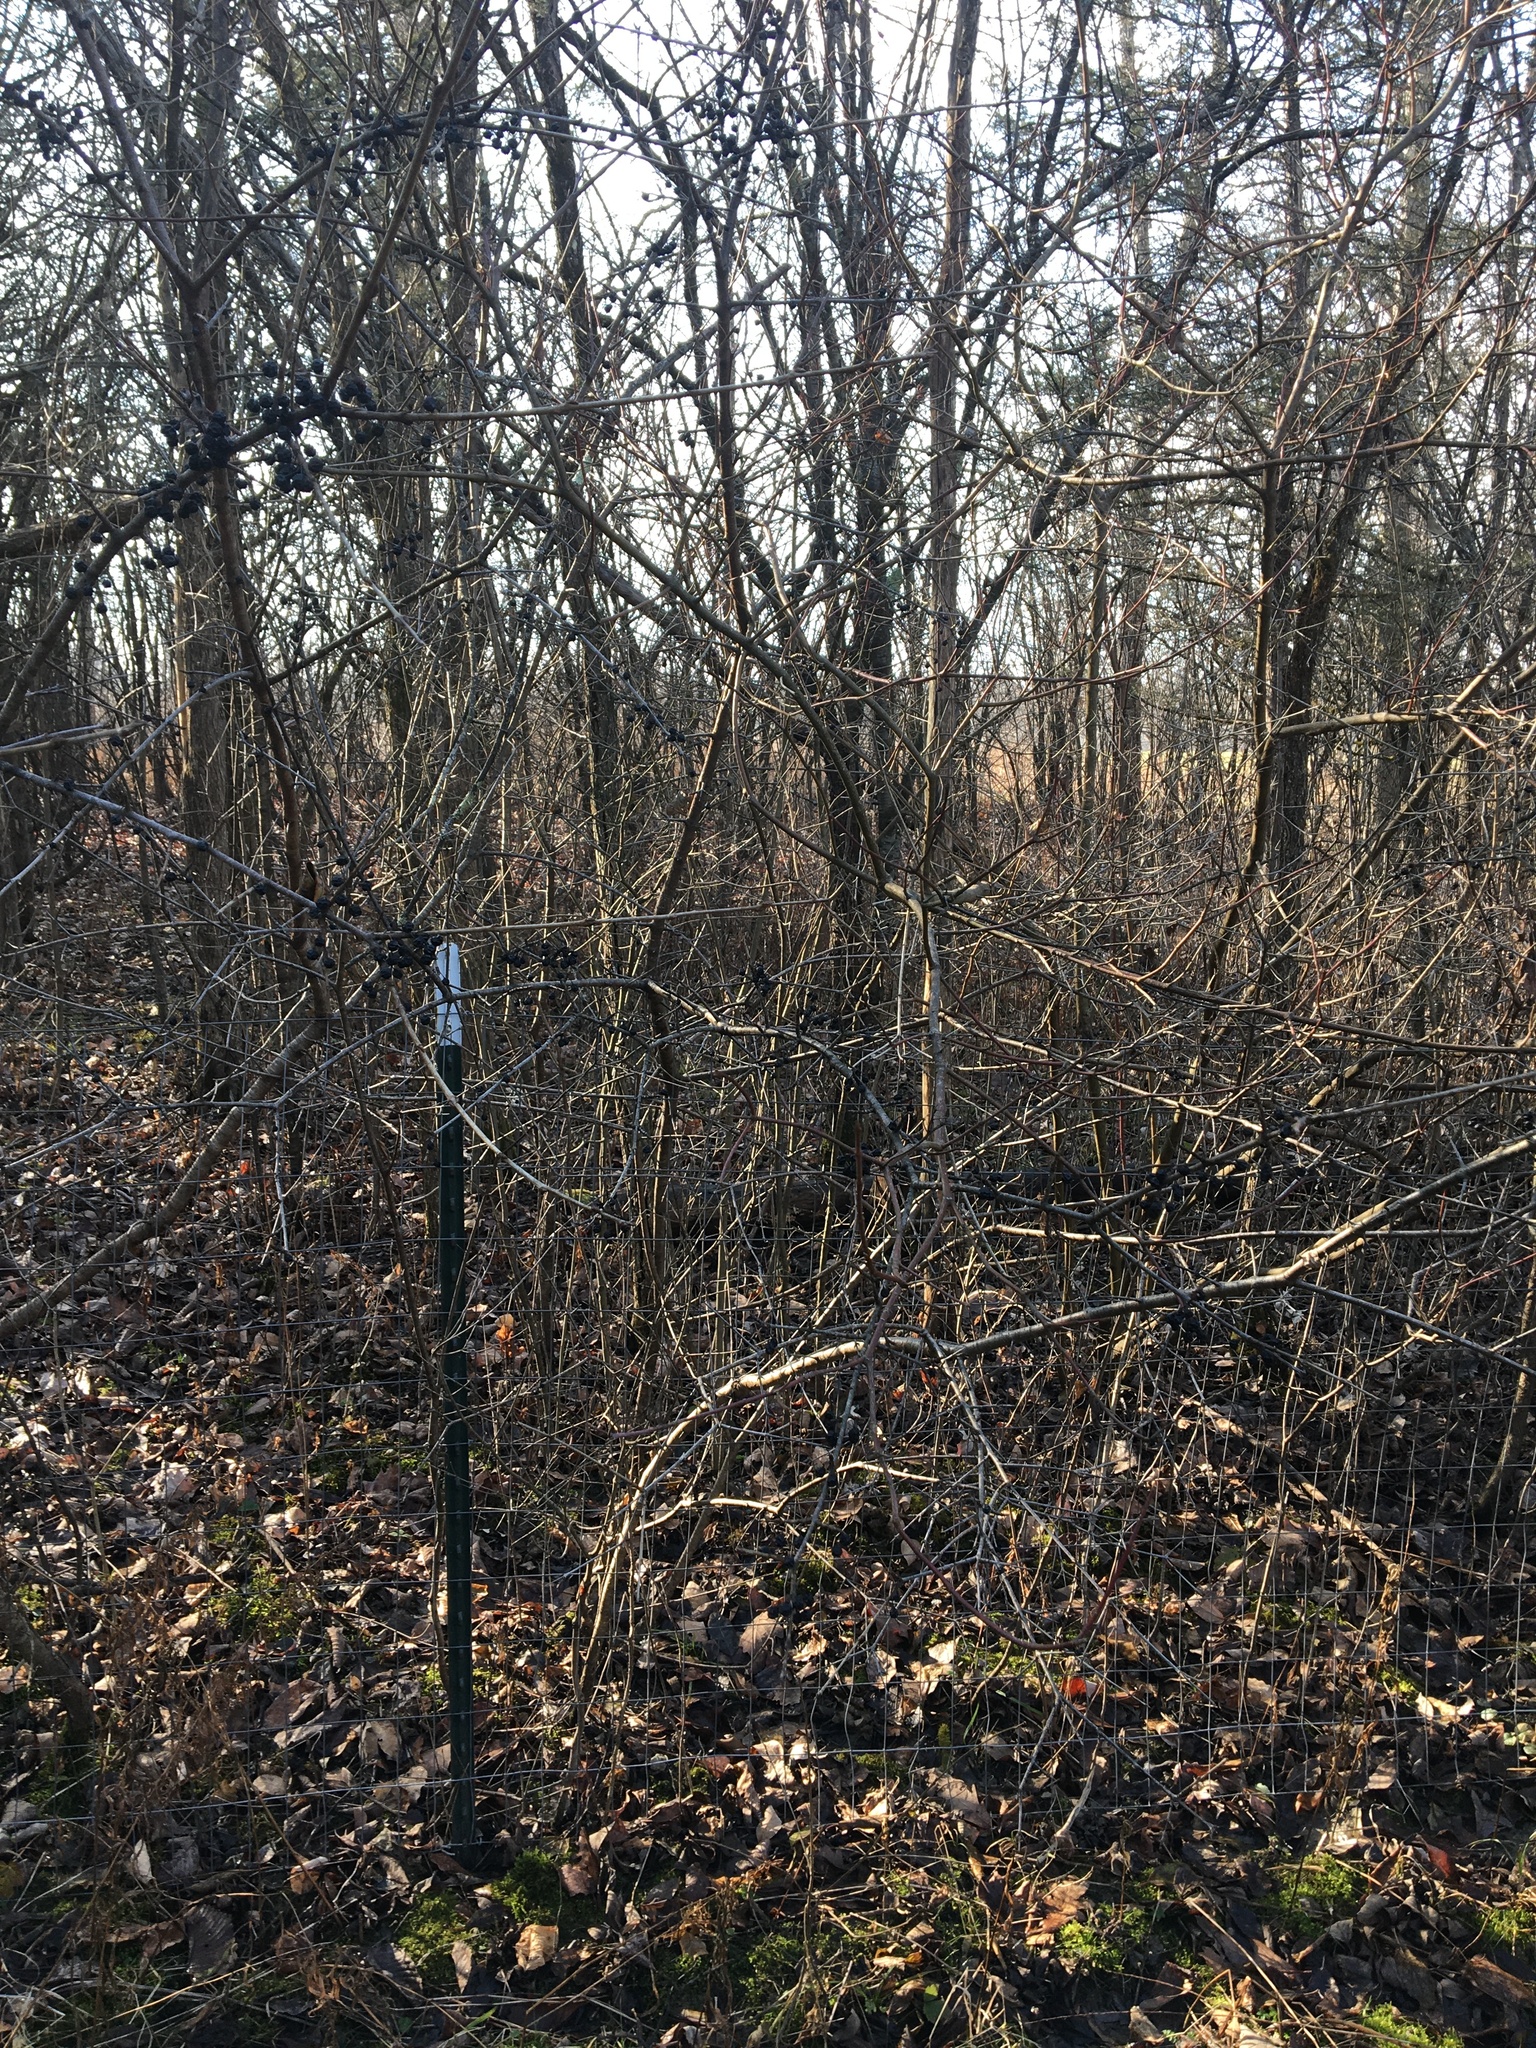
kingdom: Plantae
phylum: Tracheophyta
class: Magnoliopsida
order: Rosales
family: Rhamnaceae
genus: Rhamnus
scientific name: Rhamnus cathartica
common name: Common buckthorn
